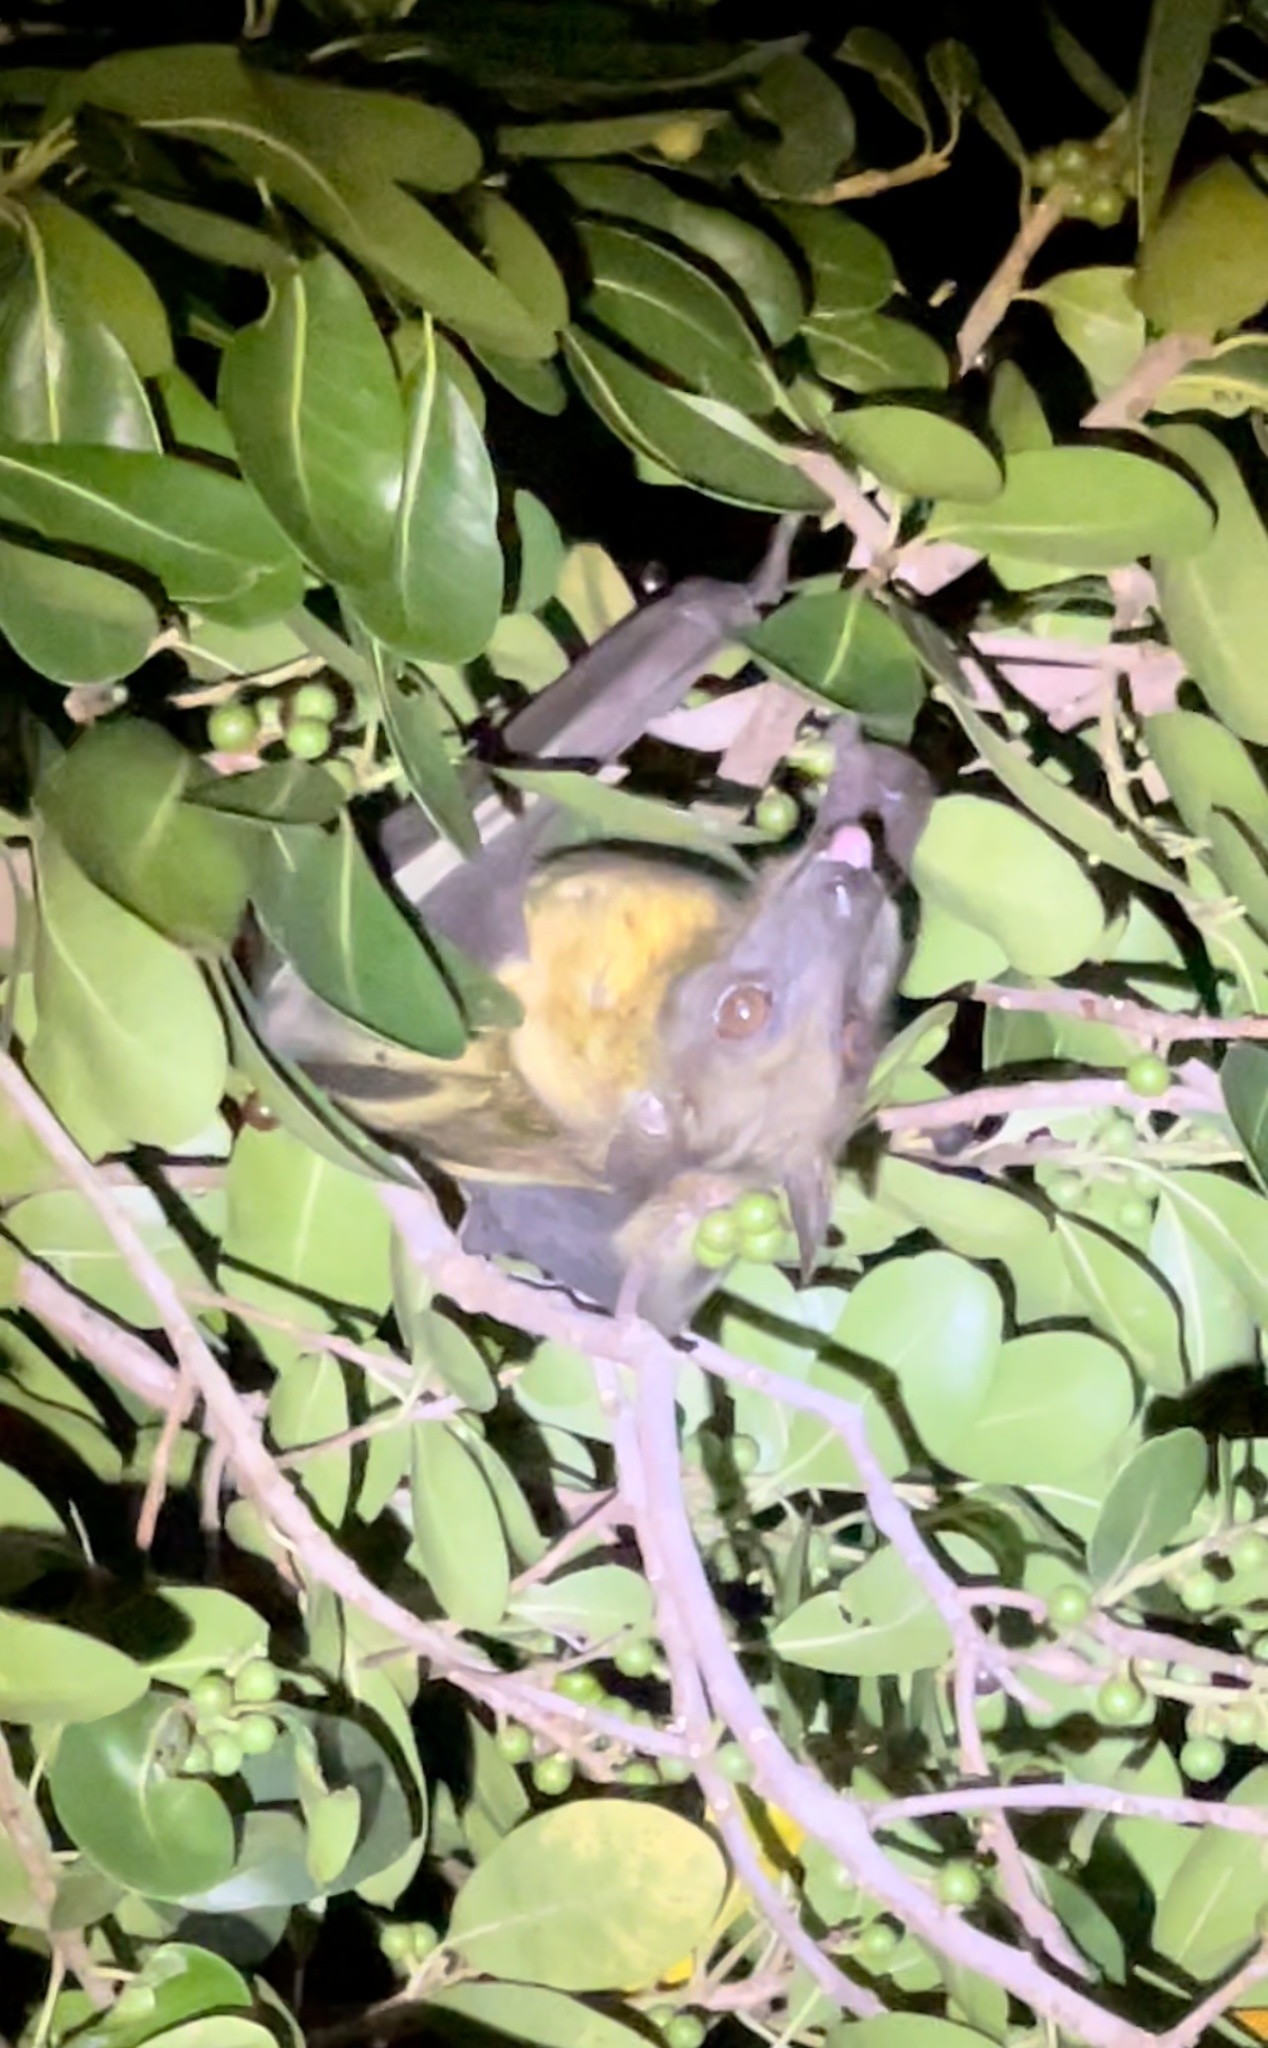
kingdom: Animalia
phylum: Chordata
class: Mammalia
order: Chiroptera
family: Pteropodidae
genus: Eidolon
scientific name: Eidolon helvum
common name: Straw-colored fruit bat
